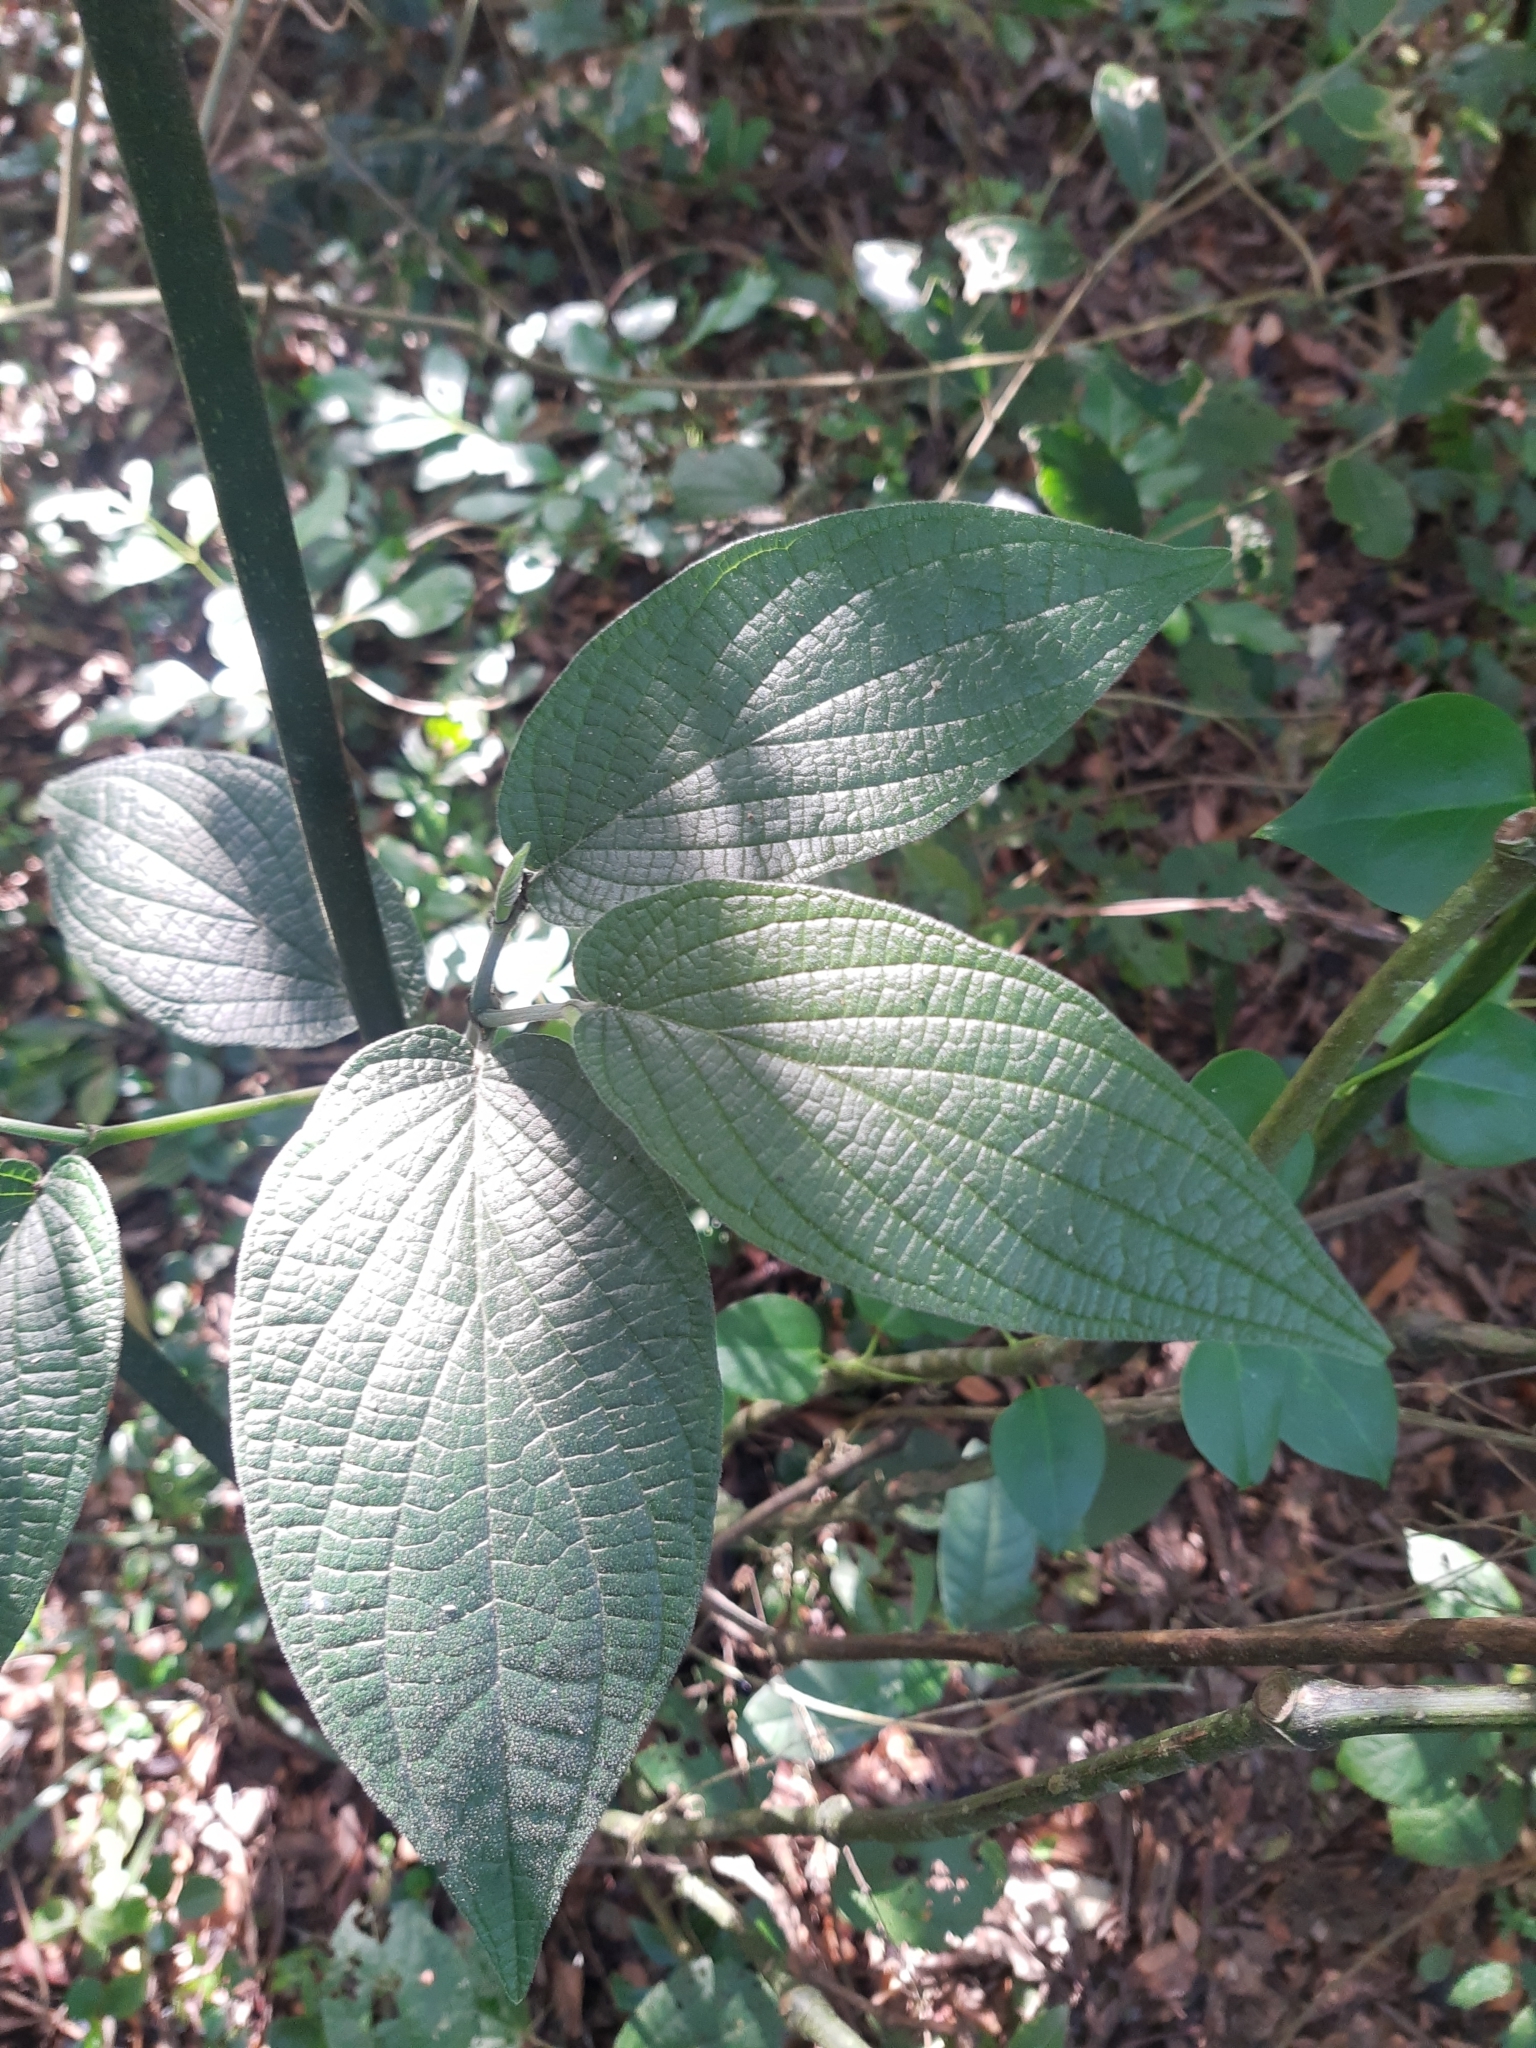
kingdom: Plantae
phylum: Tracheophyta
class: Magnoliopsida
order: Piperales
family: Piperaceae
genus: Piper
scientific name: Piper mollicomum
